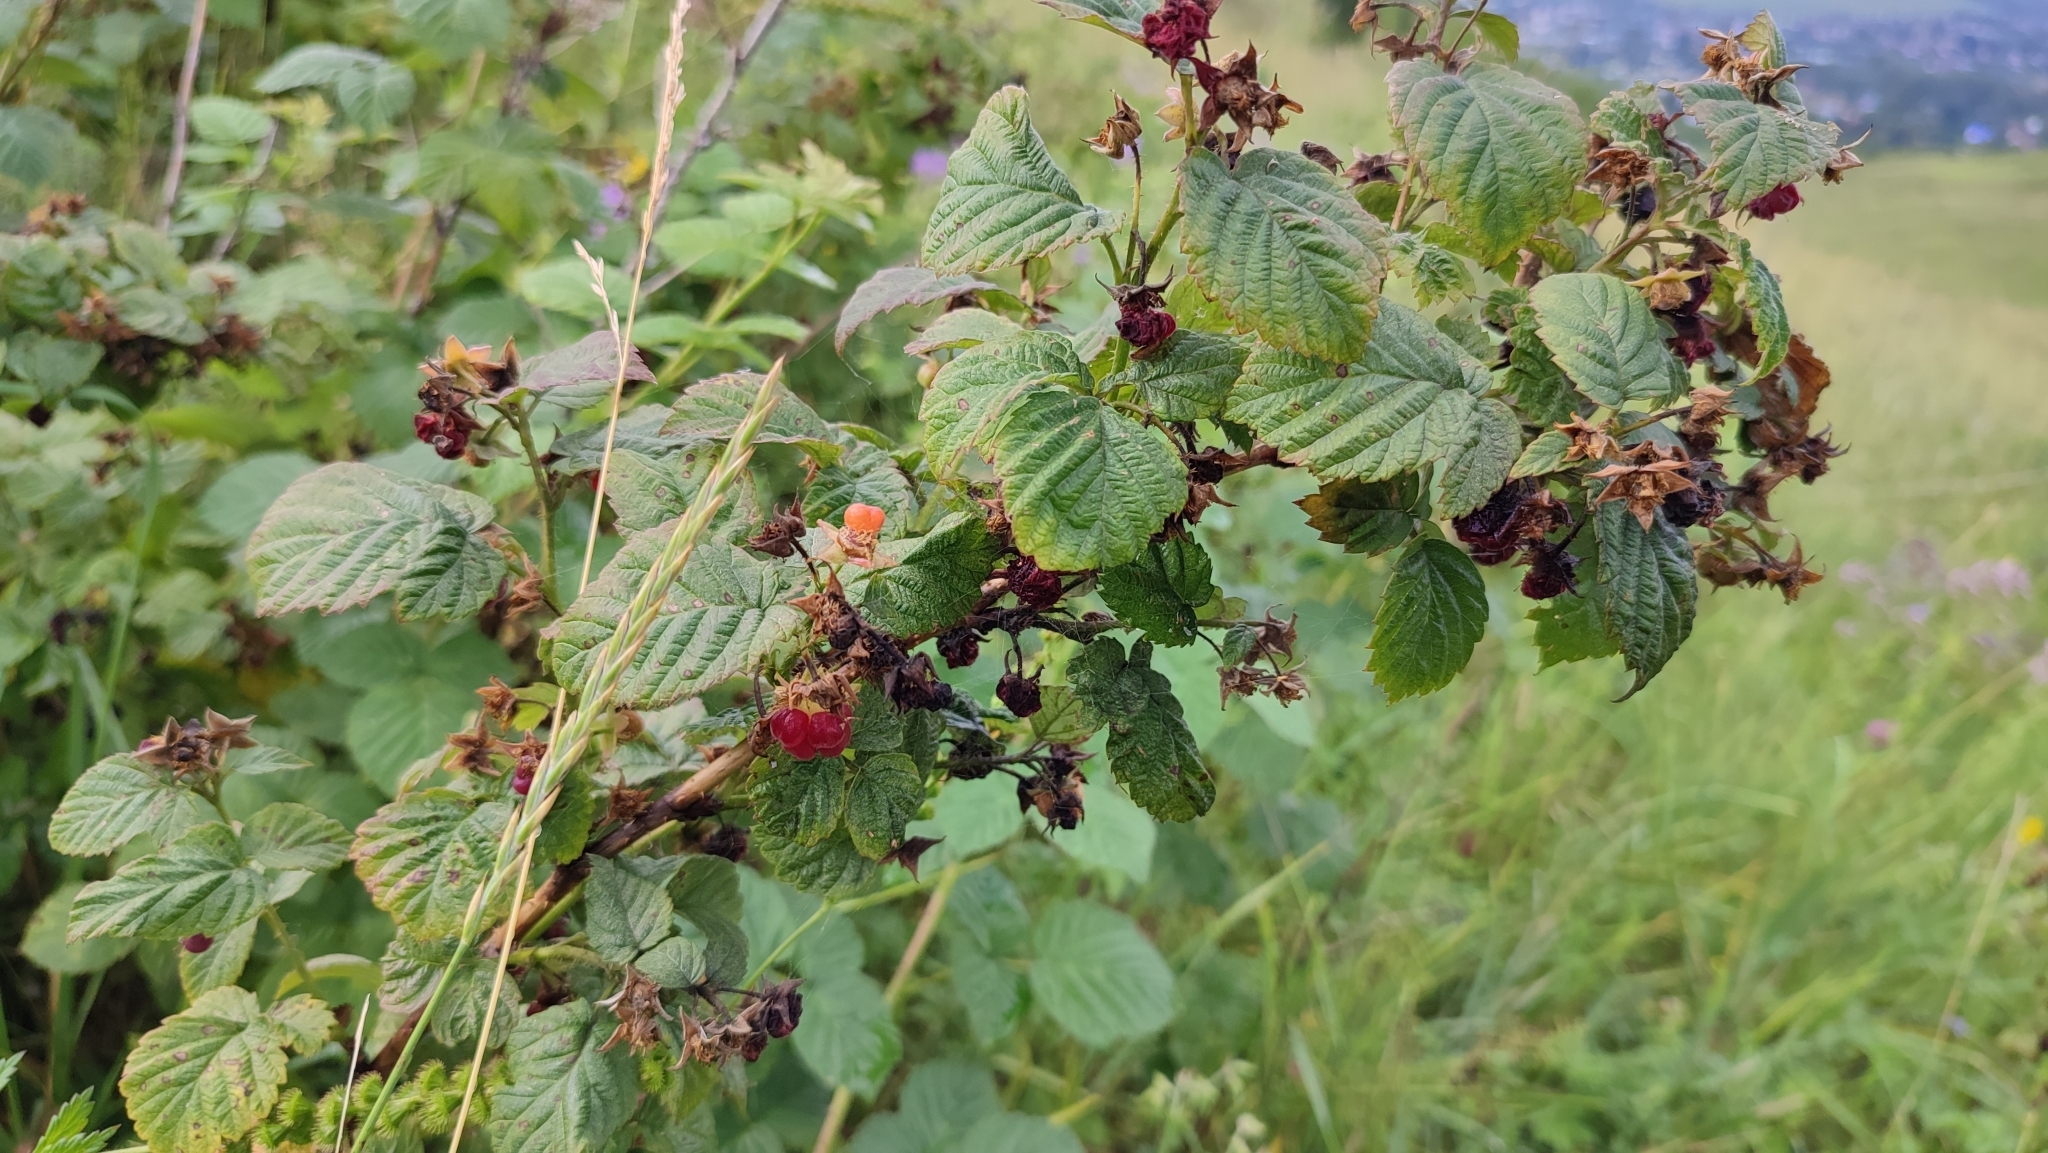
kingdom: Plantae
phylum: Tracheophyta
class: Magnoliopsida
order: Rosales
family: Rosaceae
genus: Rubus
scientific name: Rubus idaeus
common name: Raspberry
